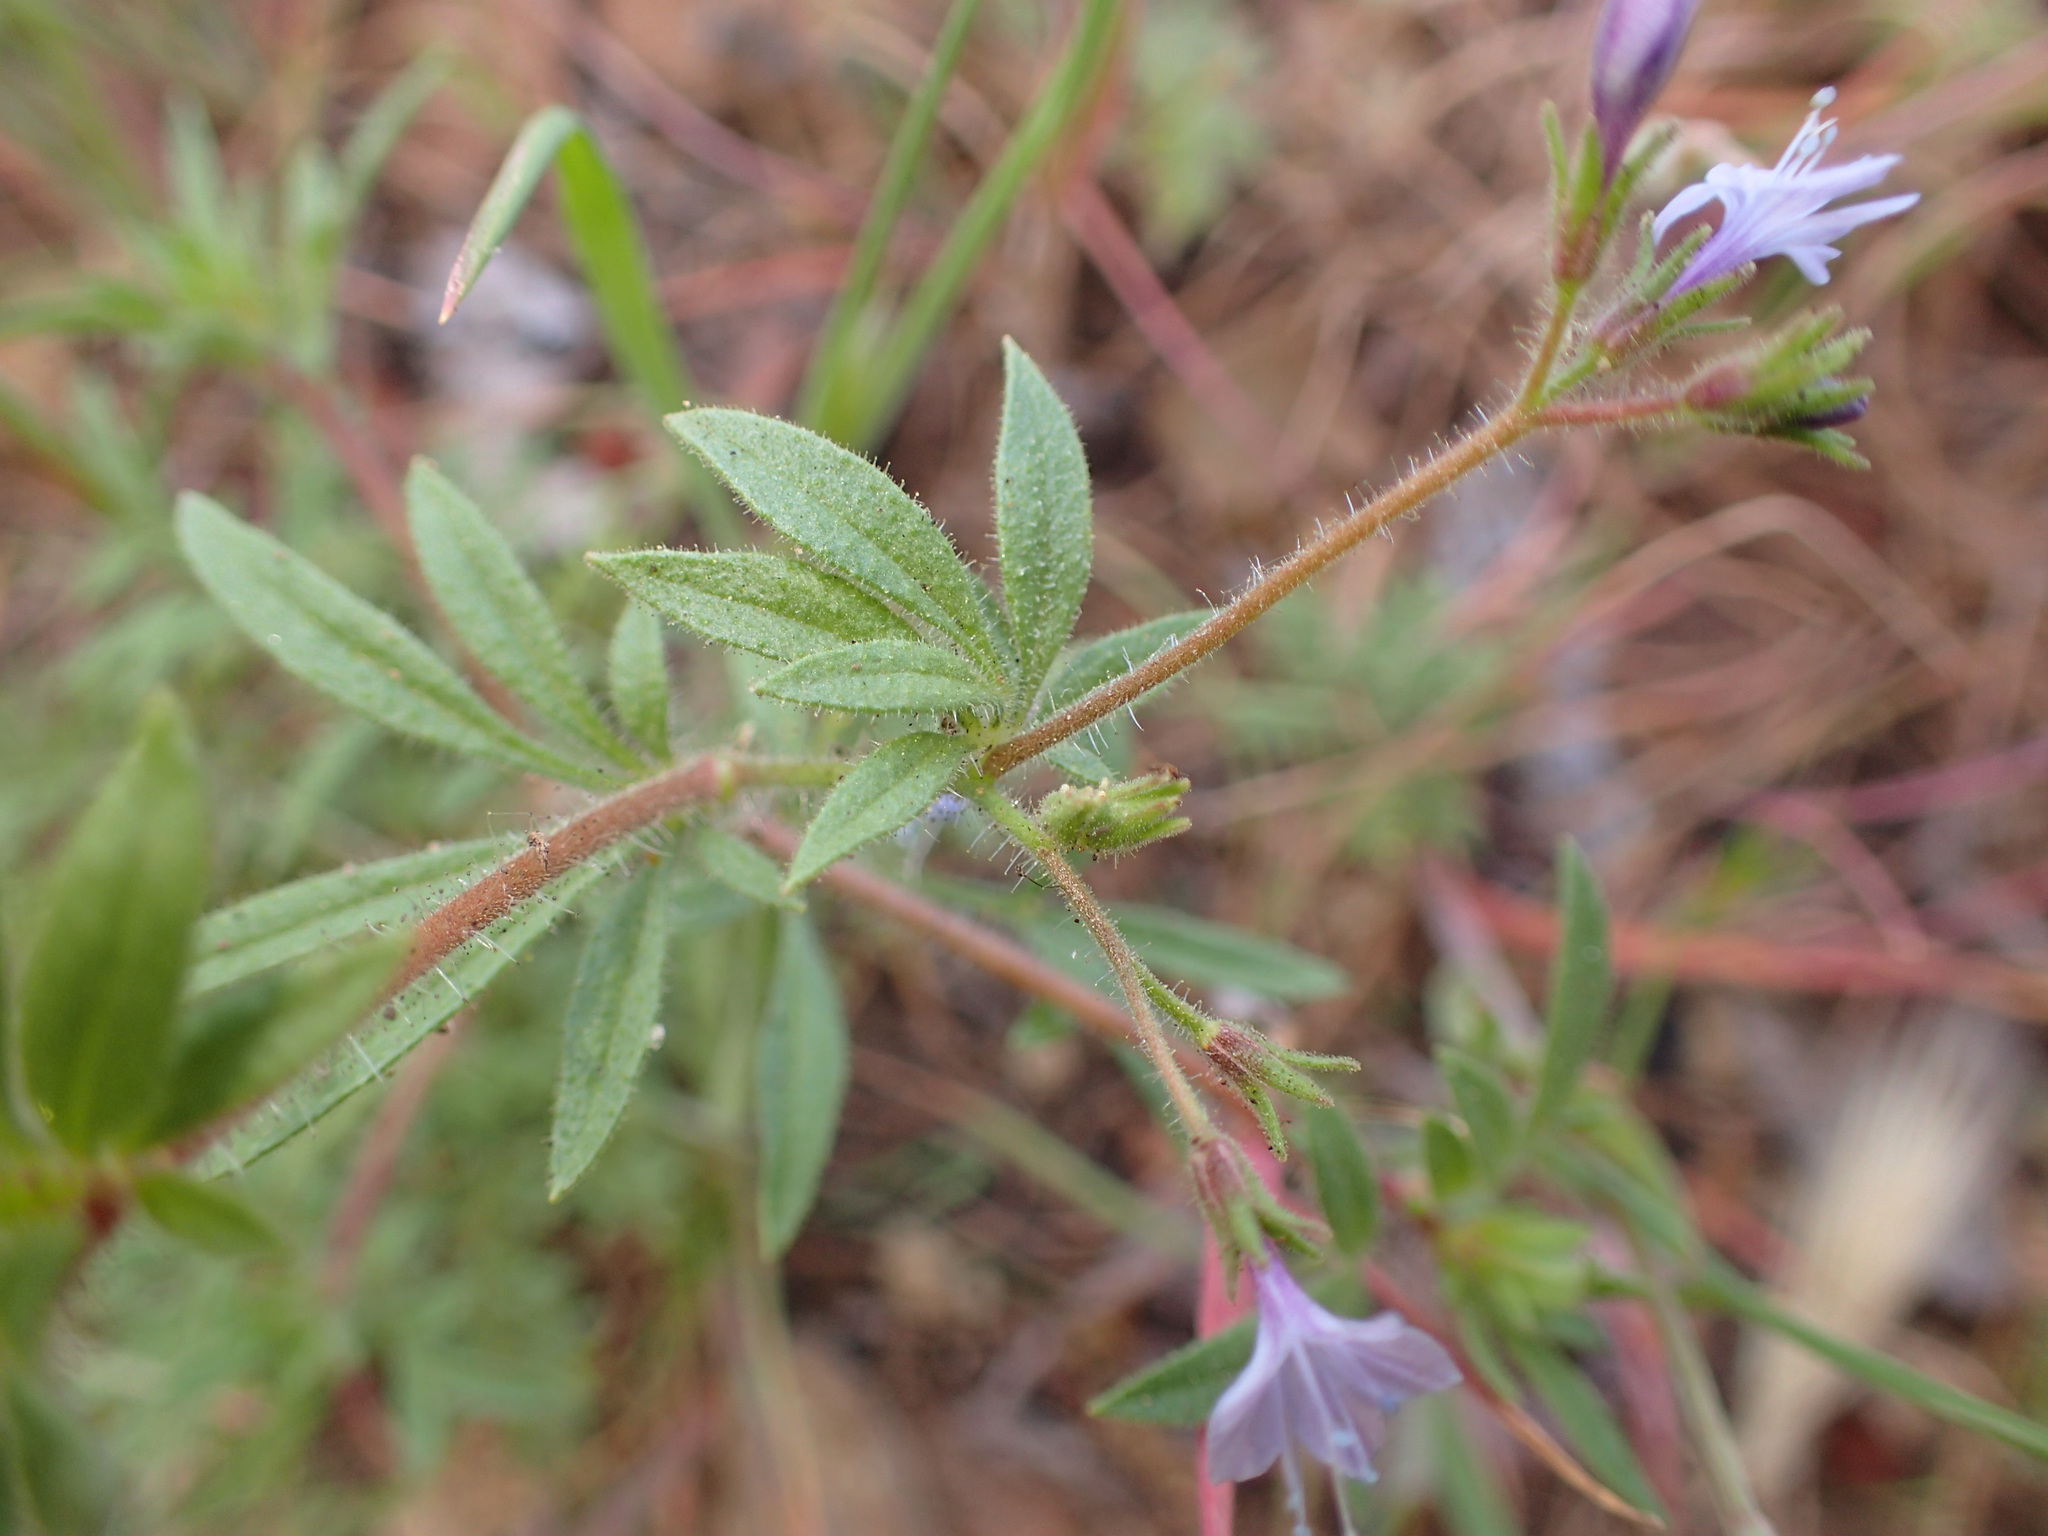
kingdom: Plantae
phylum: Tracheophyta
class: Magnoliopsida
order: Ericales
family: Polemoniaceae
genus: Allophyllum
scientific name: Allophyllum glutinosum
